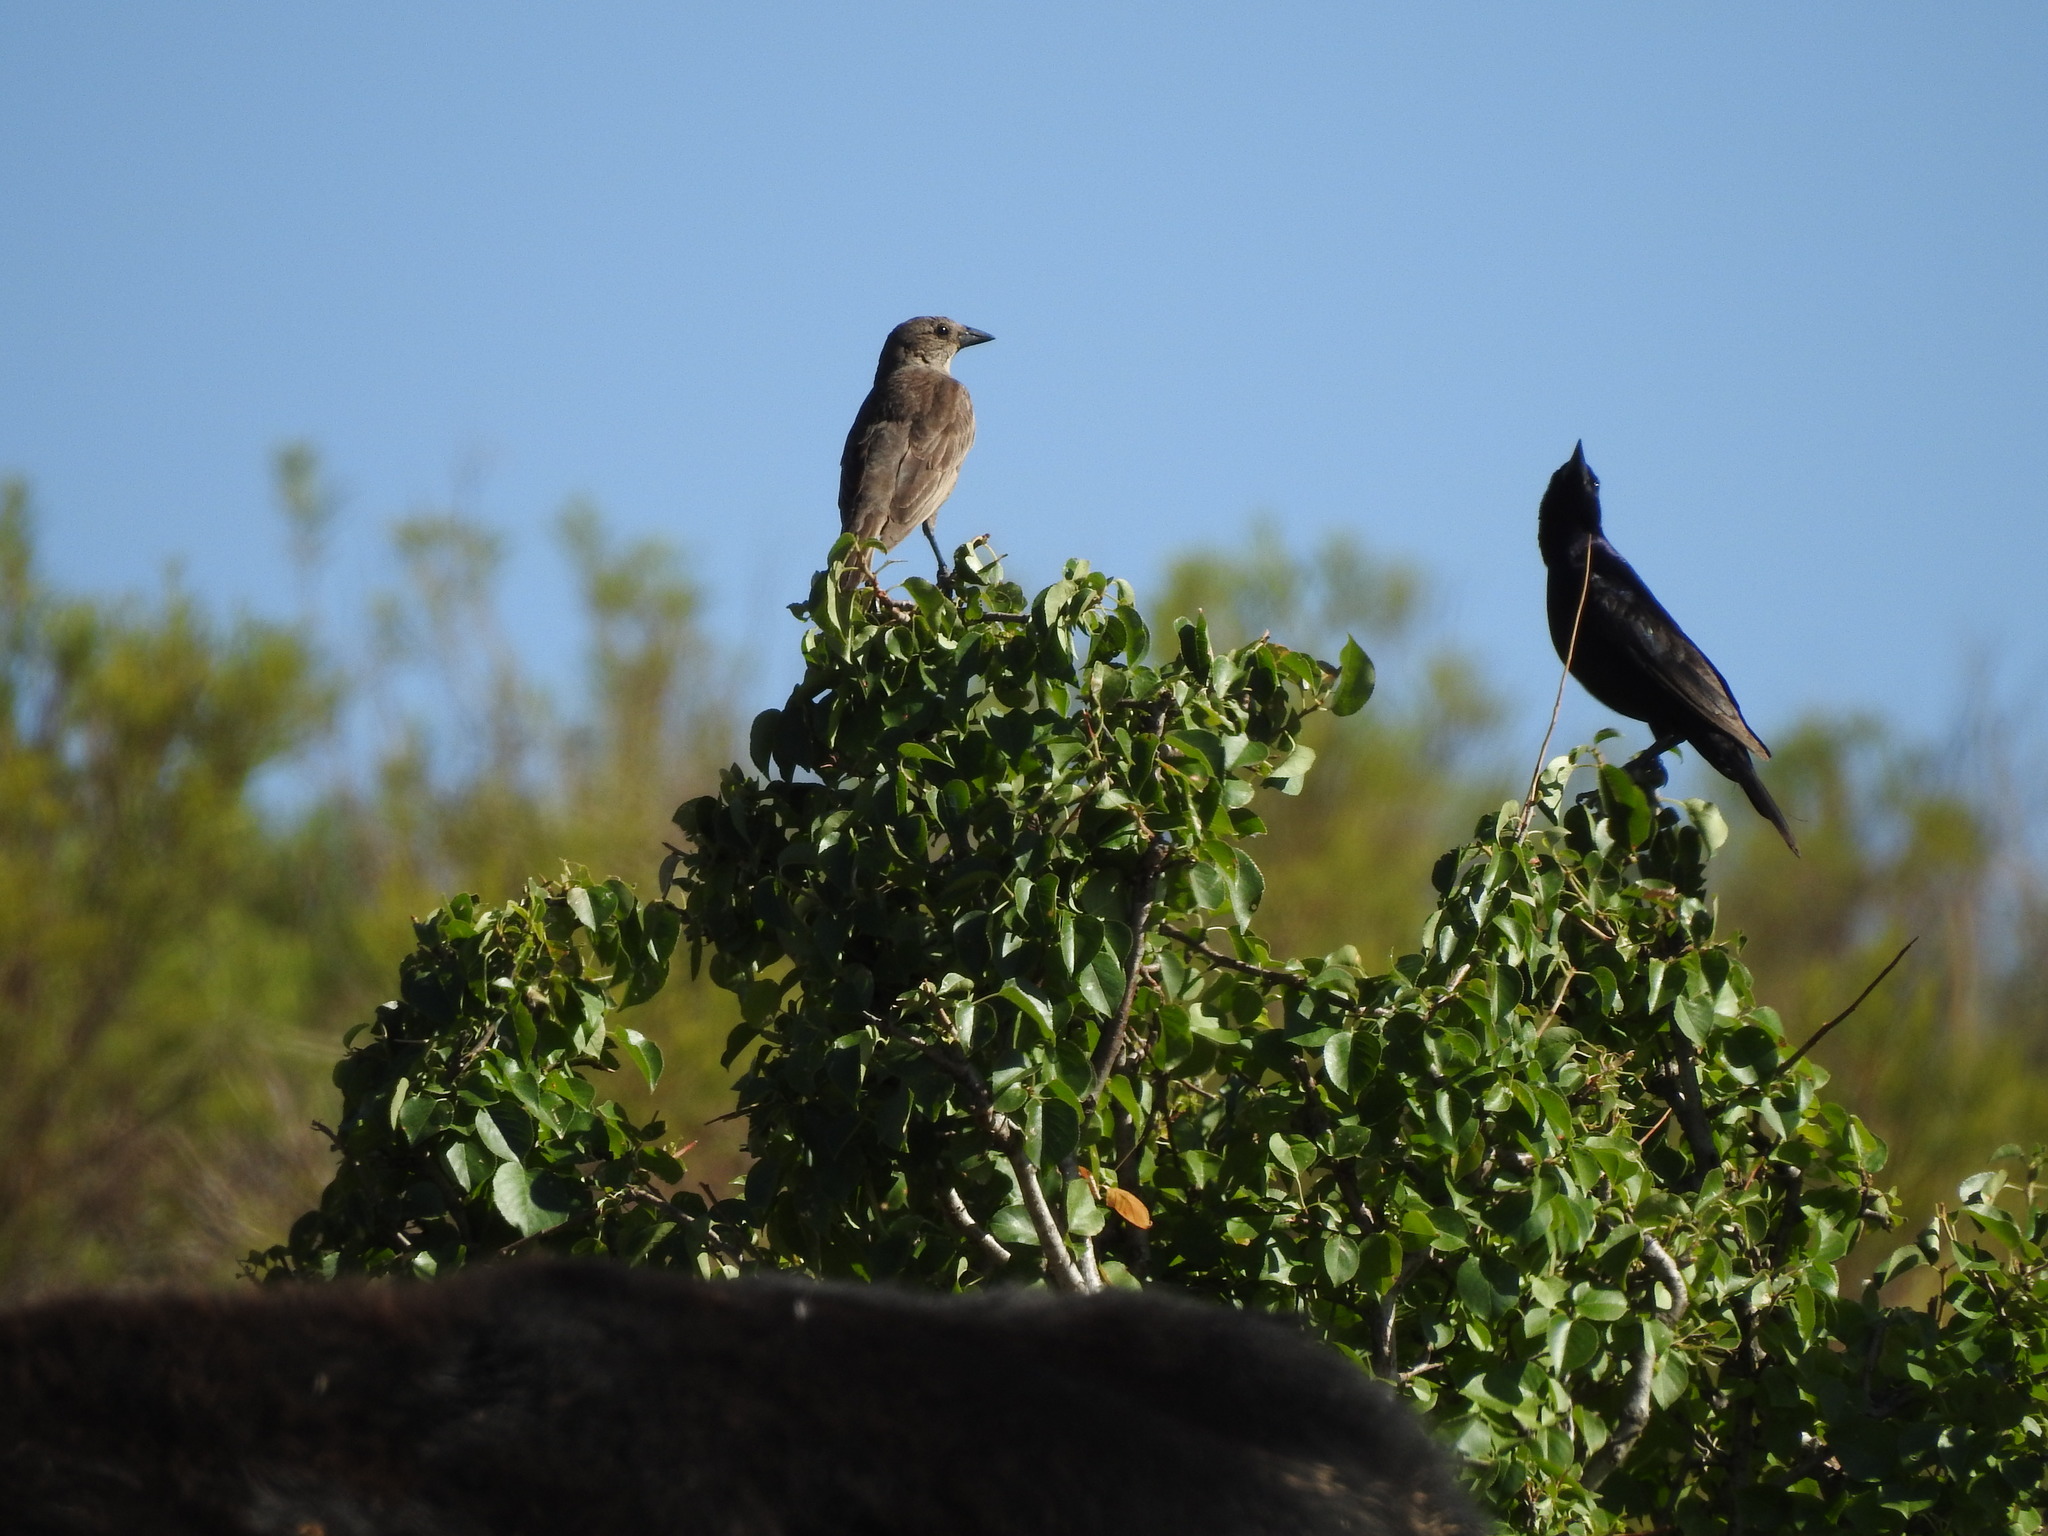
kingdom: Animalia
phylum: Chordata
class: Aves
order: Passeriformes
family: Icteridae
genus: Molothrus
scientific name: Molothrus bonariensis
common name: Shiny cowbird
